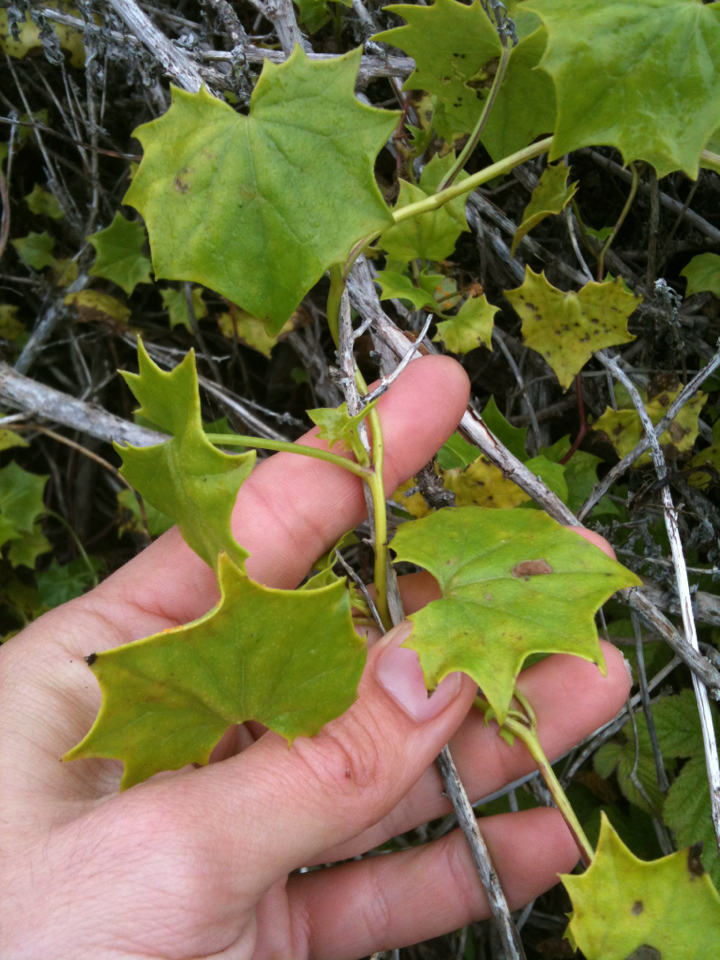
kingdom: Plantae
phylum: Tracheophyta
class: Magnoliopsida
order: Asterales
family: Asteraceae
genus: Delairea
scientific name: Delairea odorata
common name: Cape-ivy
